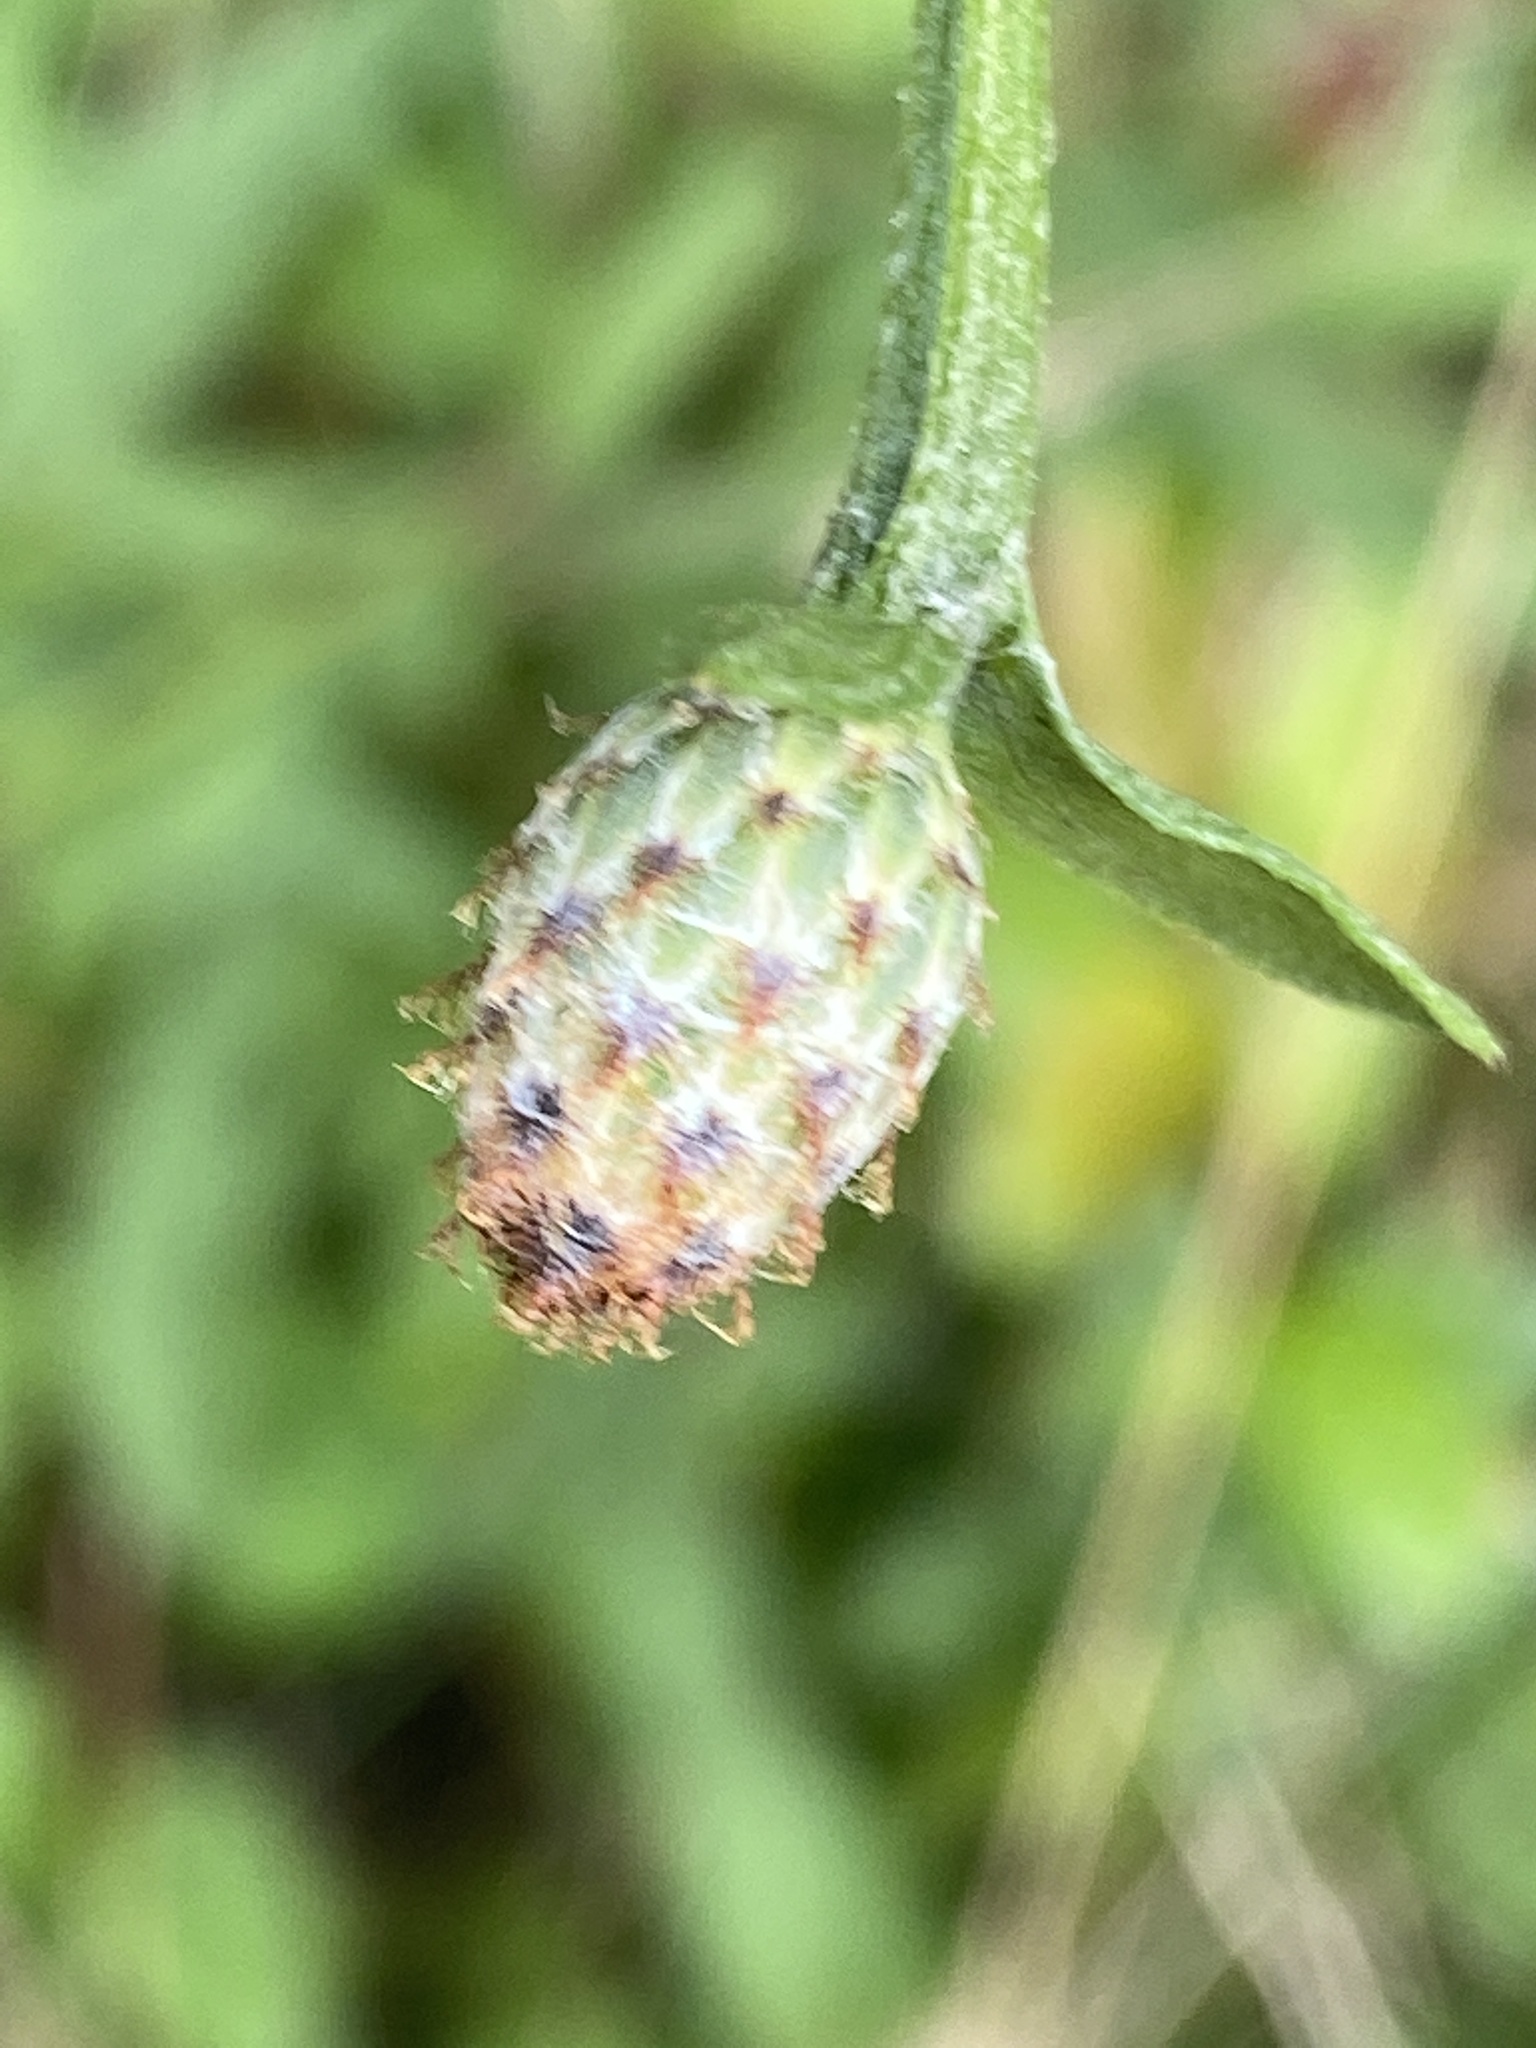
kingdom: Plantae
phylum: Tracheophyta
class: Magnoliopsida
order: Asterales
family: Asteraceae
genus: Centaurea
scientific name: Centaurea nigrescens
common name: Tyrol knapweed
